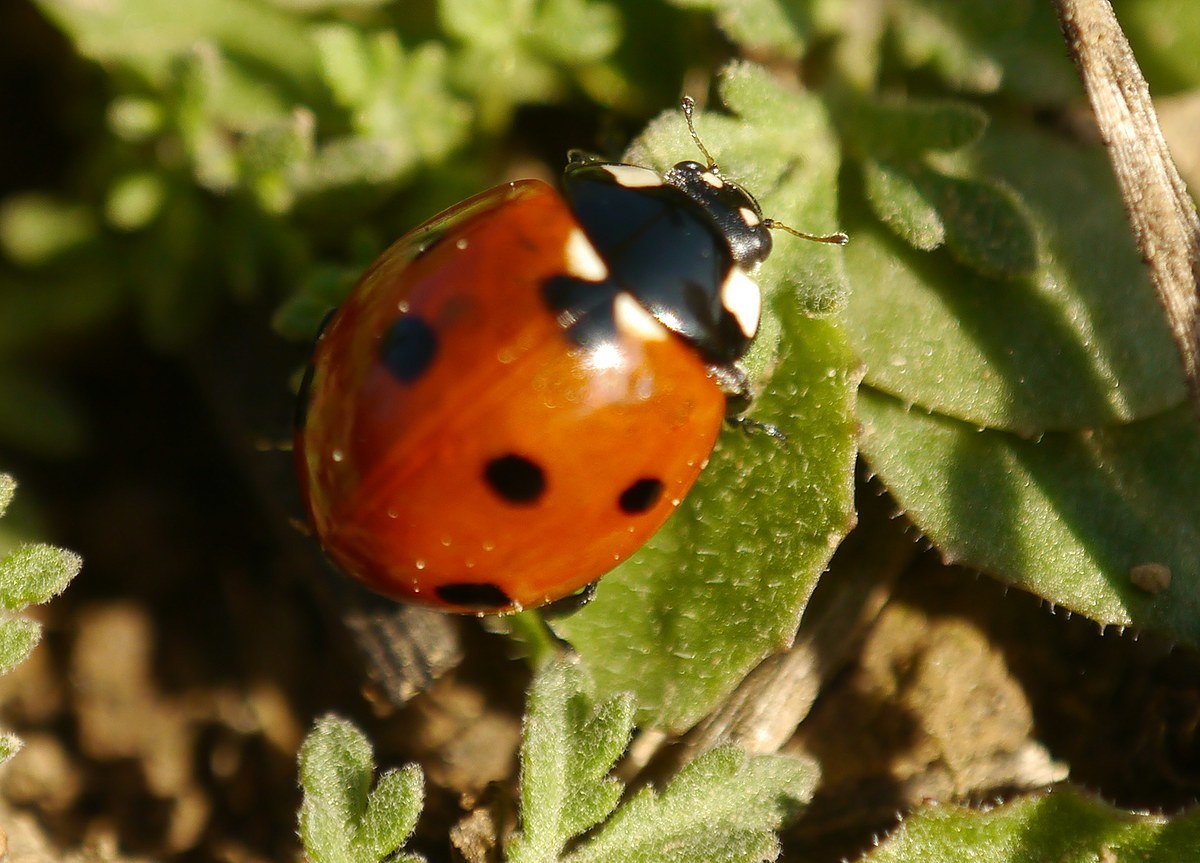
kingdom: Animalia
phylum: Arthropoda
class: Insecta
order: Coleoptera
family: Coccinellidae
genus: Coccinella
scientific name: Coccinella septempunctata
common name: Sevenspotted lady beetle
